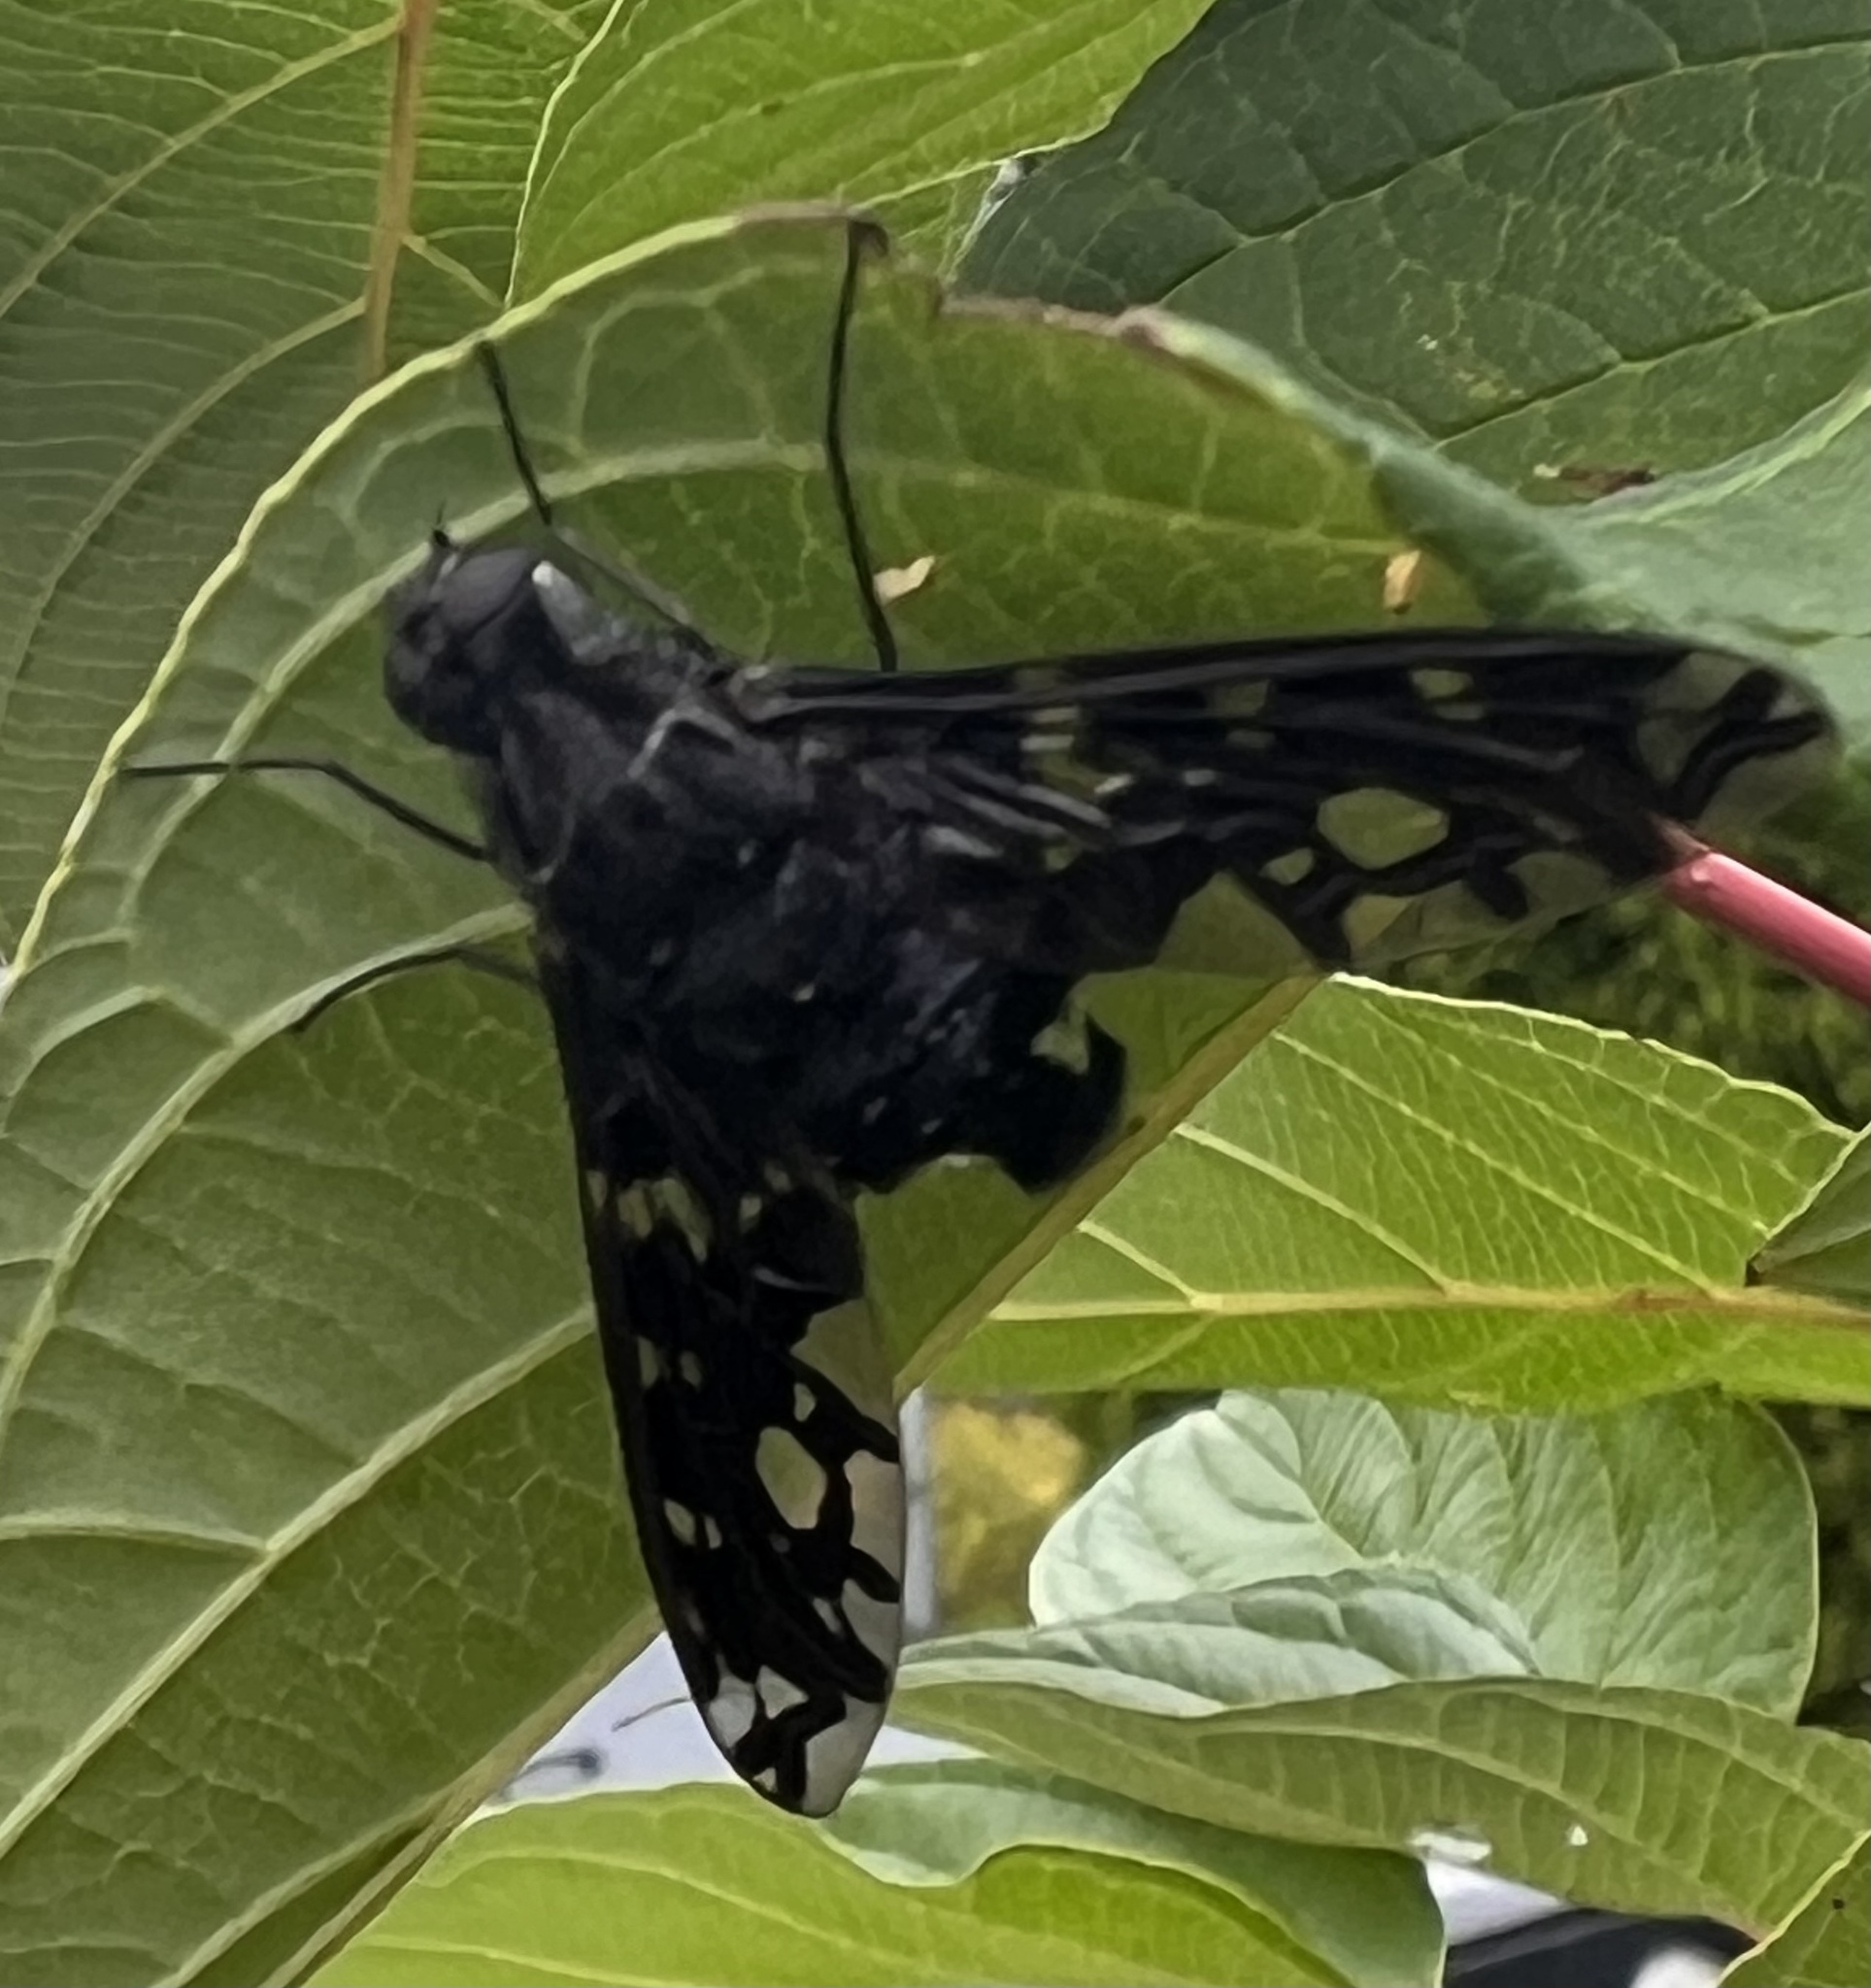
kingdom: Animalia
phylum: Arthropoda
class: Insecta
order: Diptera
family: Bombyliidae
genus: Xenox
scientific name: Xenox tigrinus
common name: Tiger bee fly
